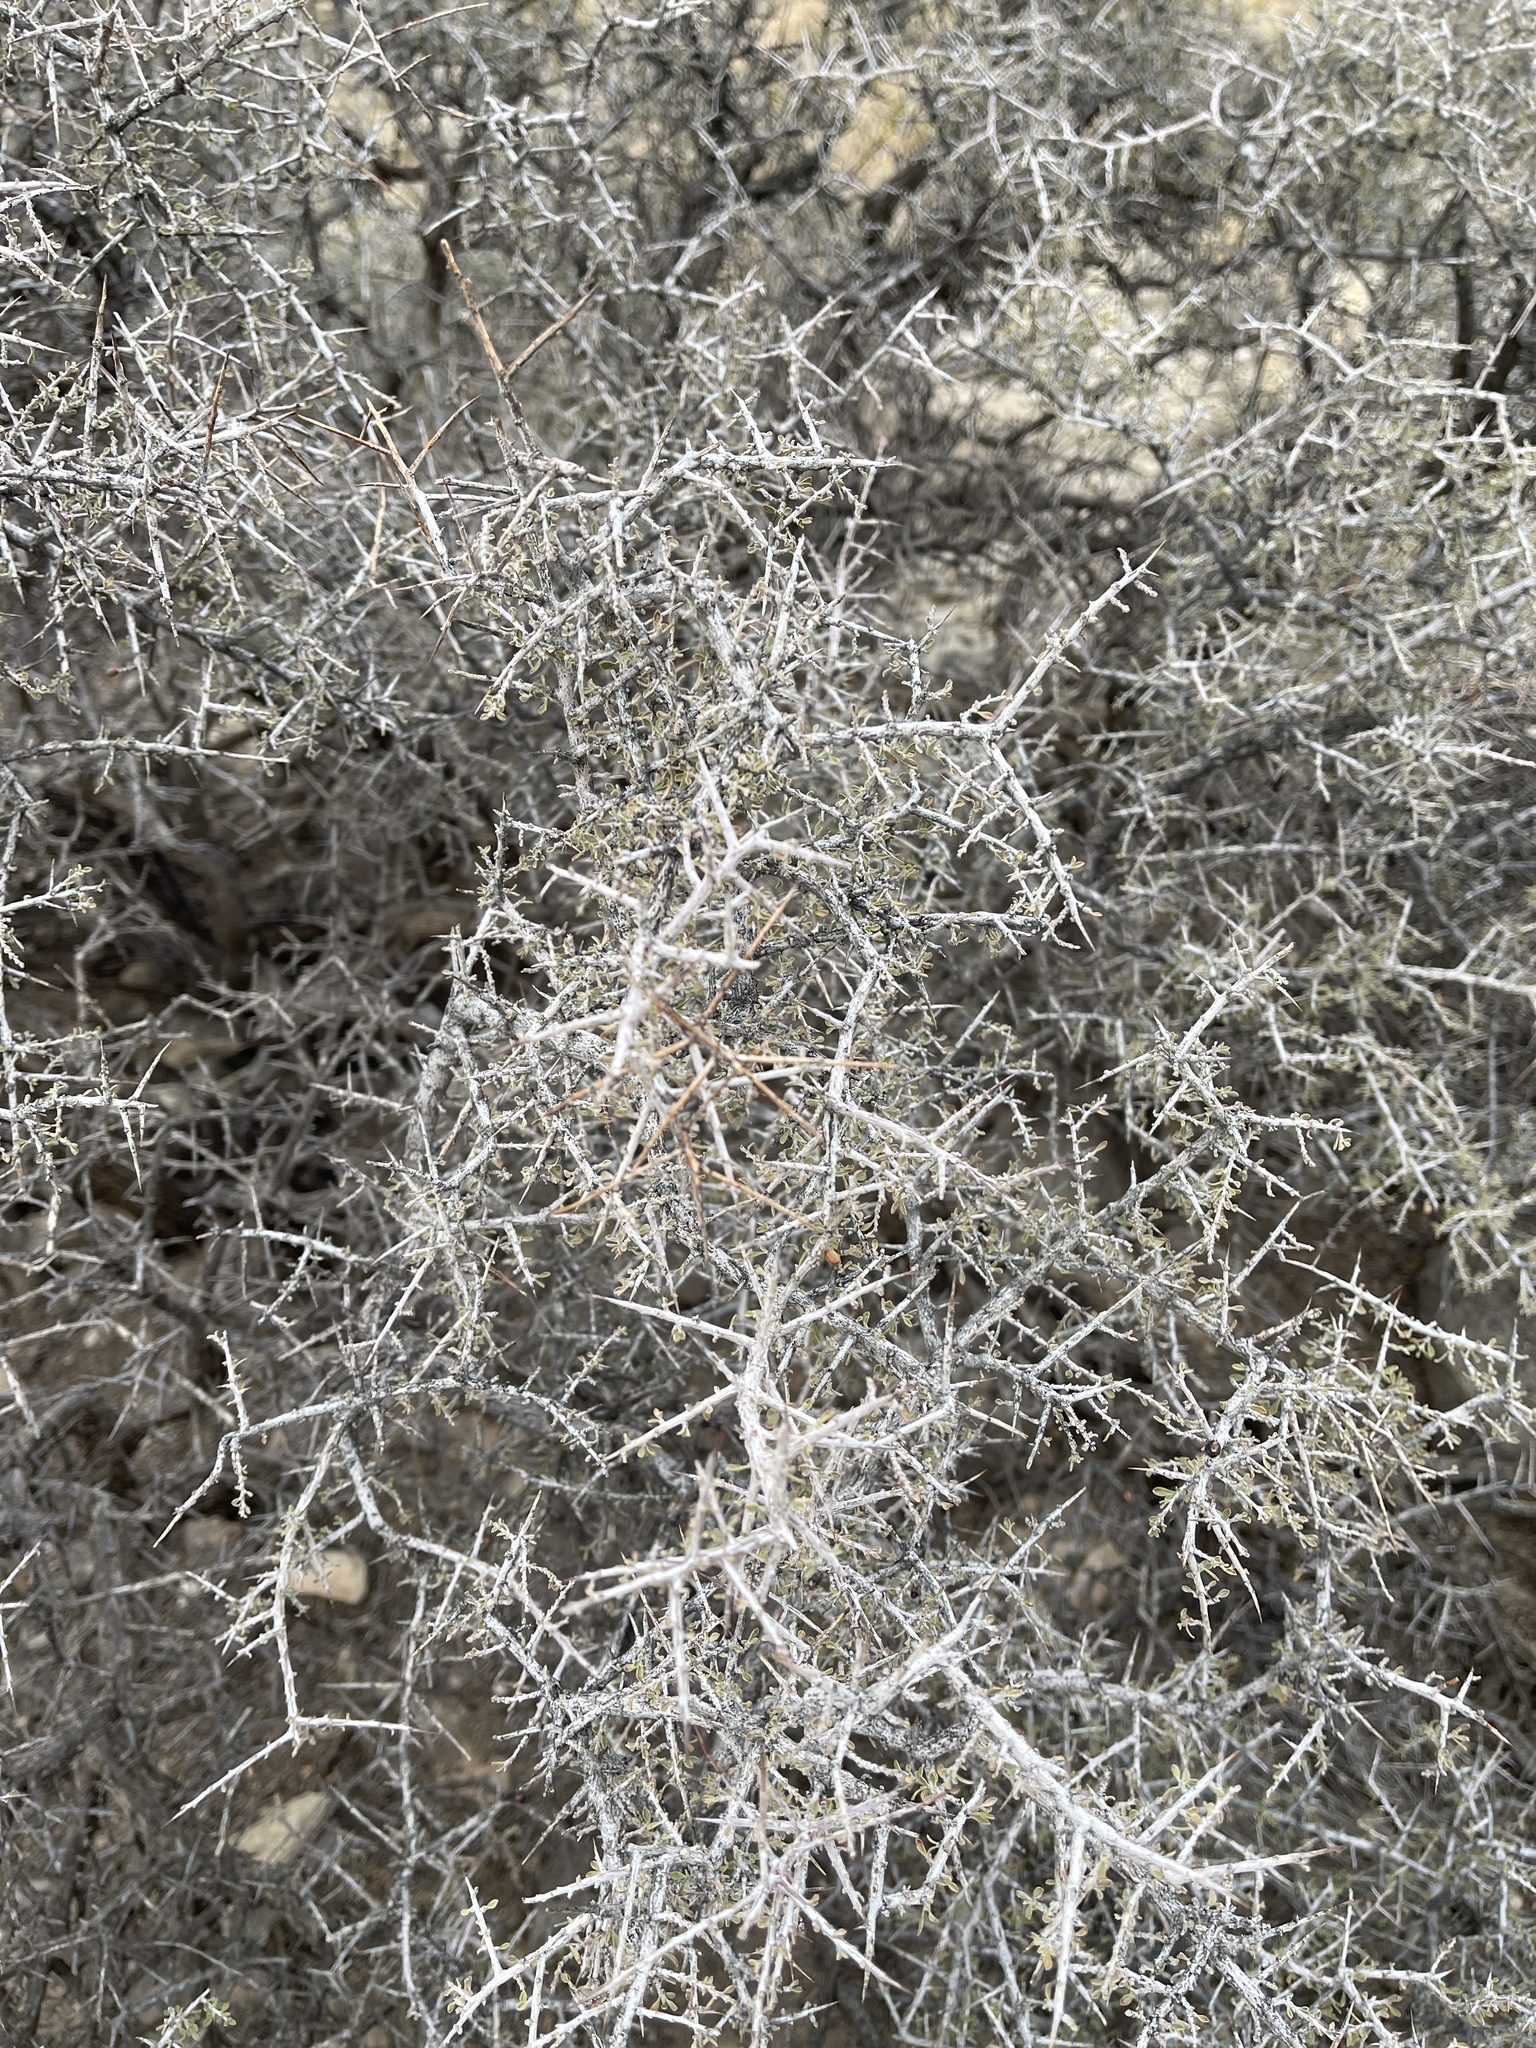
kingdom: Plantae
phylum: Tracheophyta
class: Magnoliopsida
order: Rosales
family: Rhamnaceae
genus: Condalia
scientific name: Condalia warnockii
